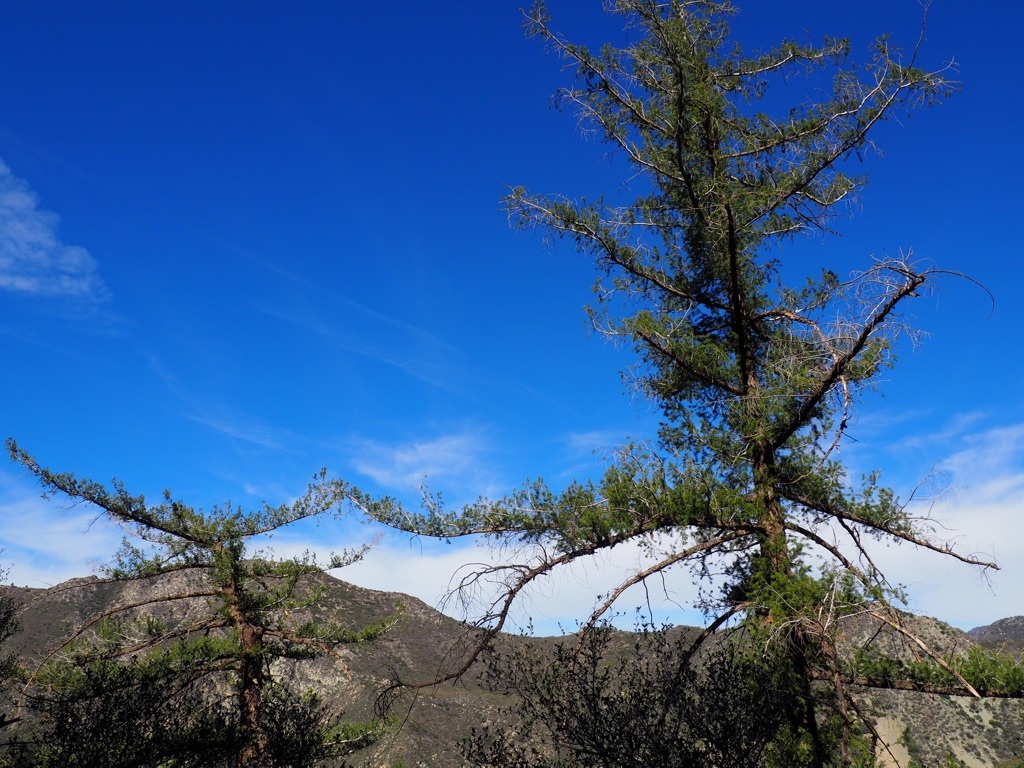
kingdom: Plantae
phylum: Tracheophyta
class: Pinopsida
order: Pinales
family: Pinaceae
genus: Pseudotsuga
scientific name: Pseudotsuga macrocarpa
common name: Big-cone douglas-fir
